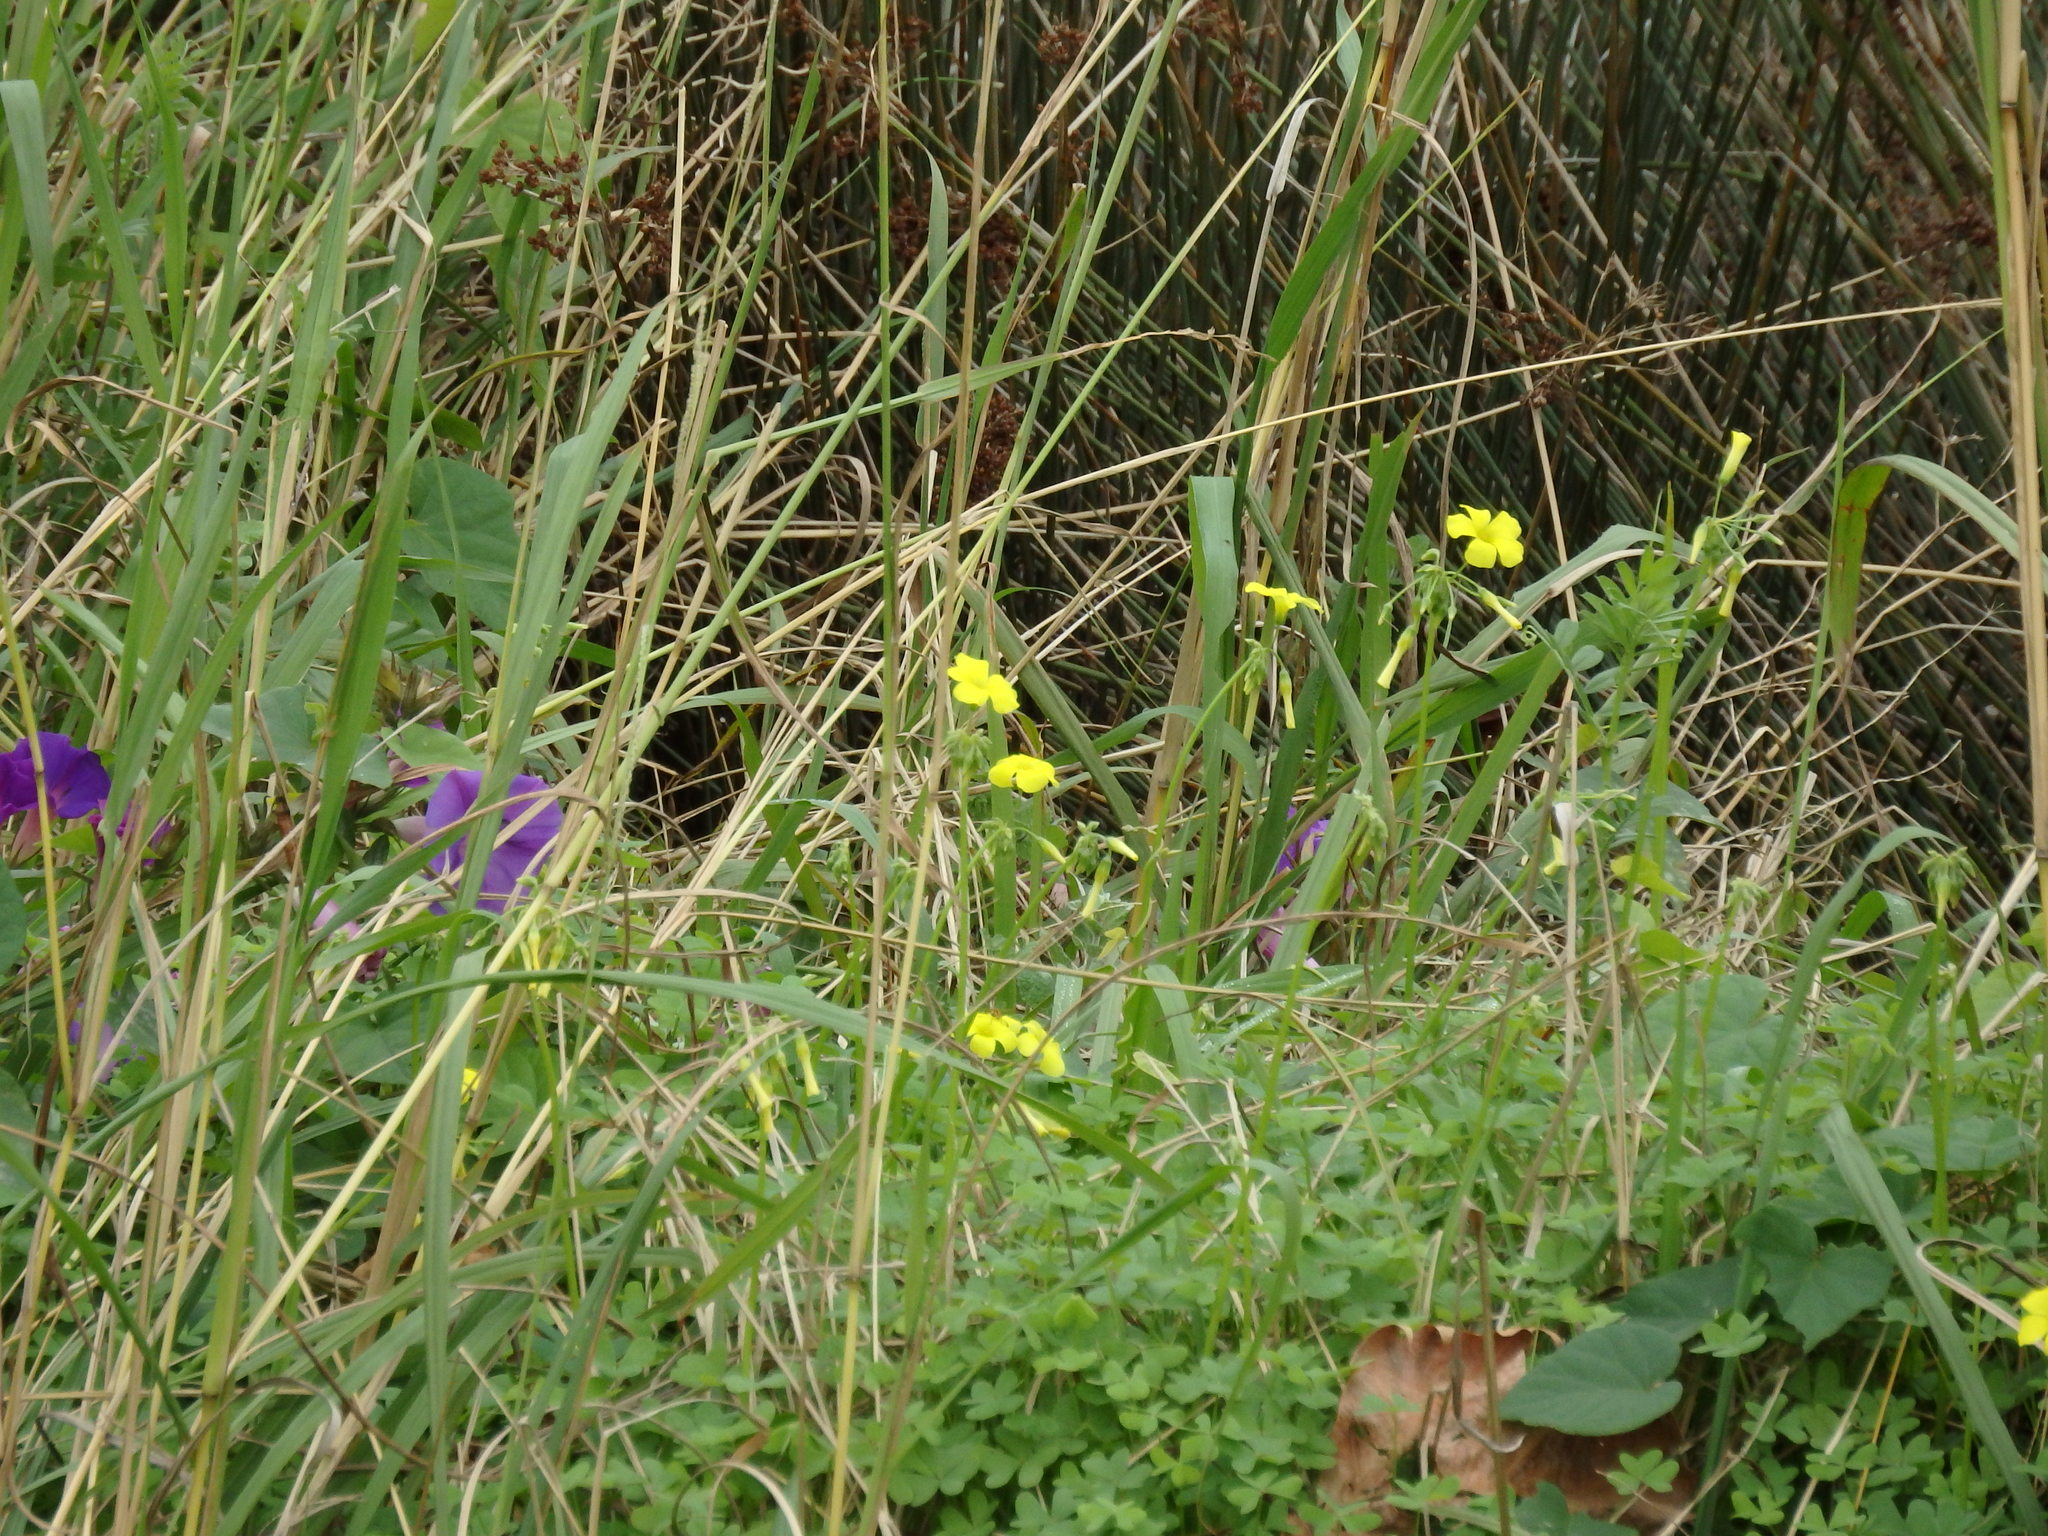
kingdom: Plantae
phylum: Tracheophyta
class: Magnoliopsida
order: Oxalidales
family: Oxalidaceae
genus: Oxalis
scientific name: Oxalis pes-caprae
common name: Bermuda-buttercup
